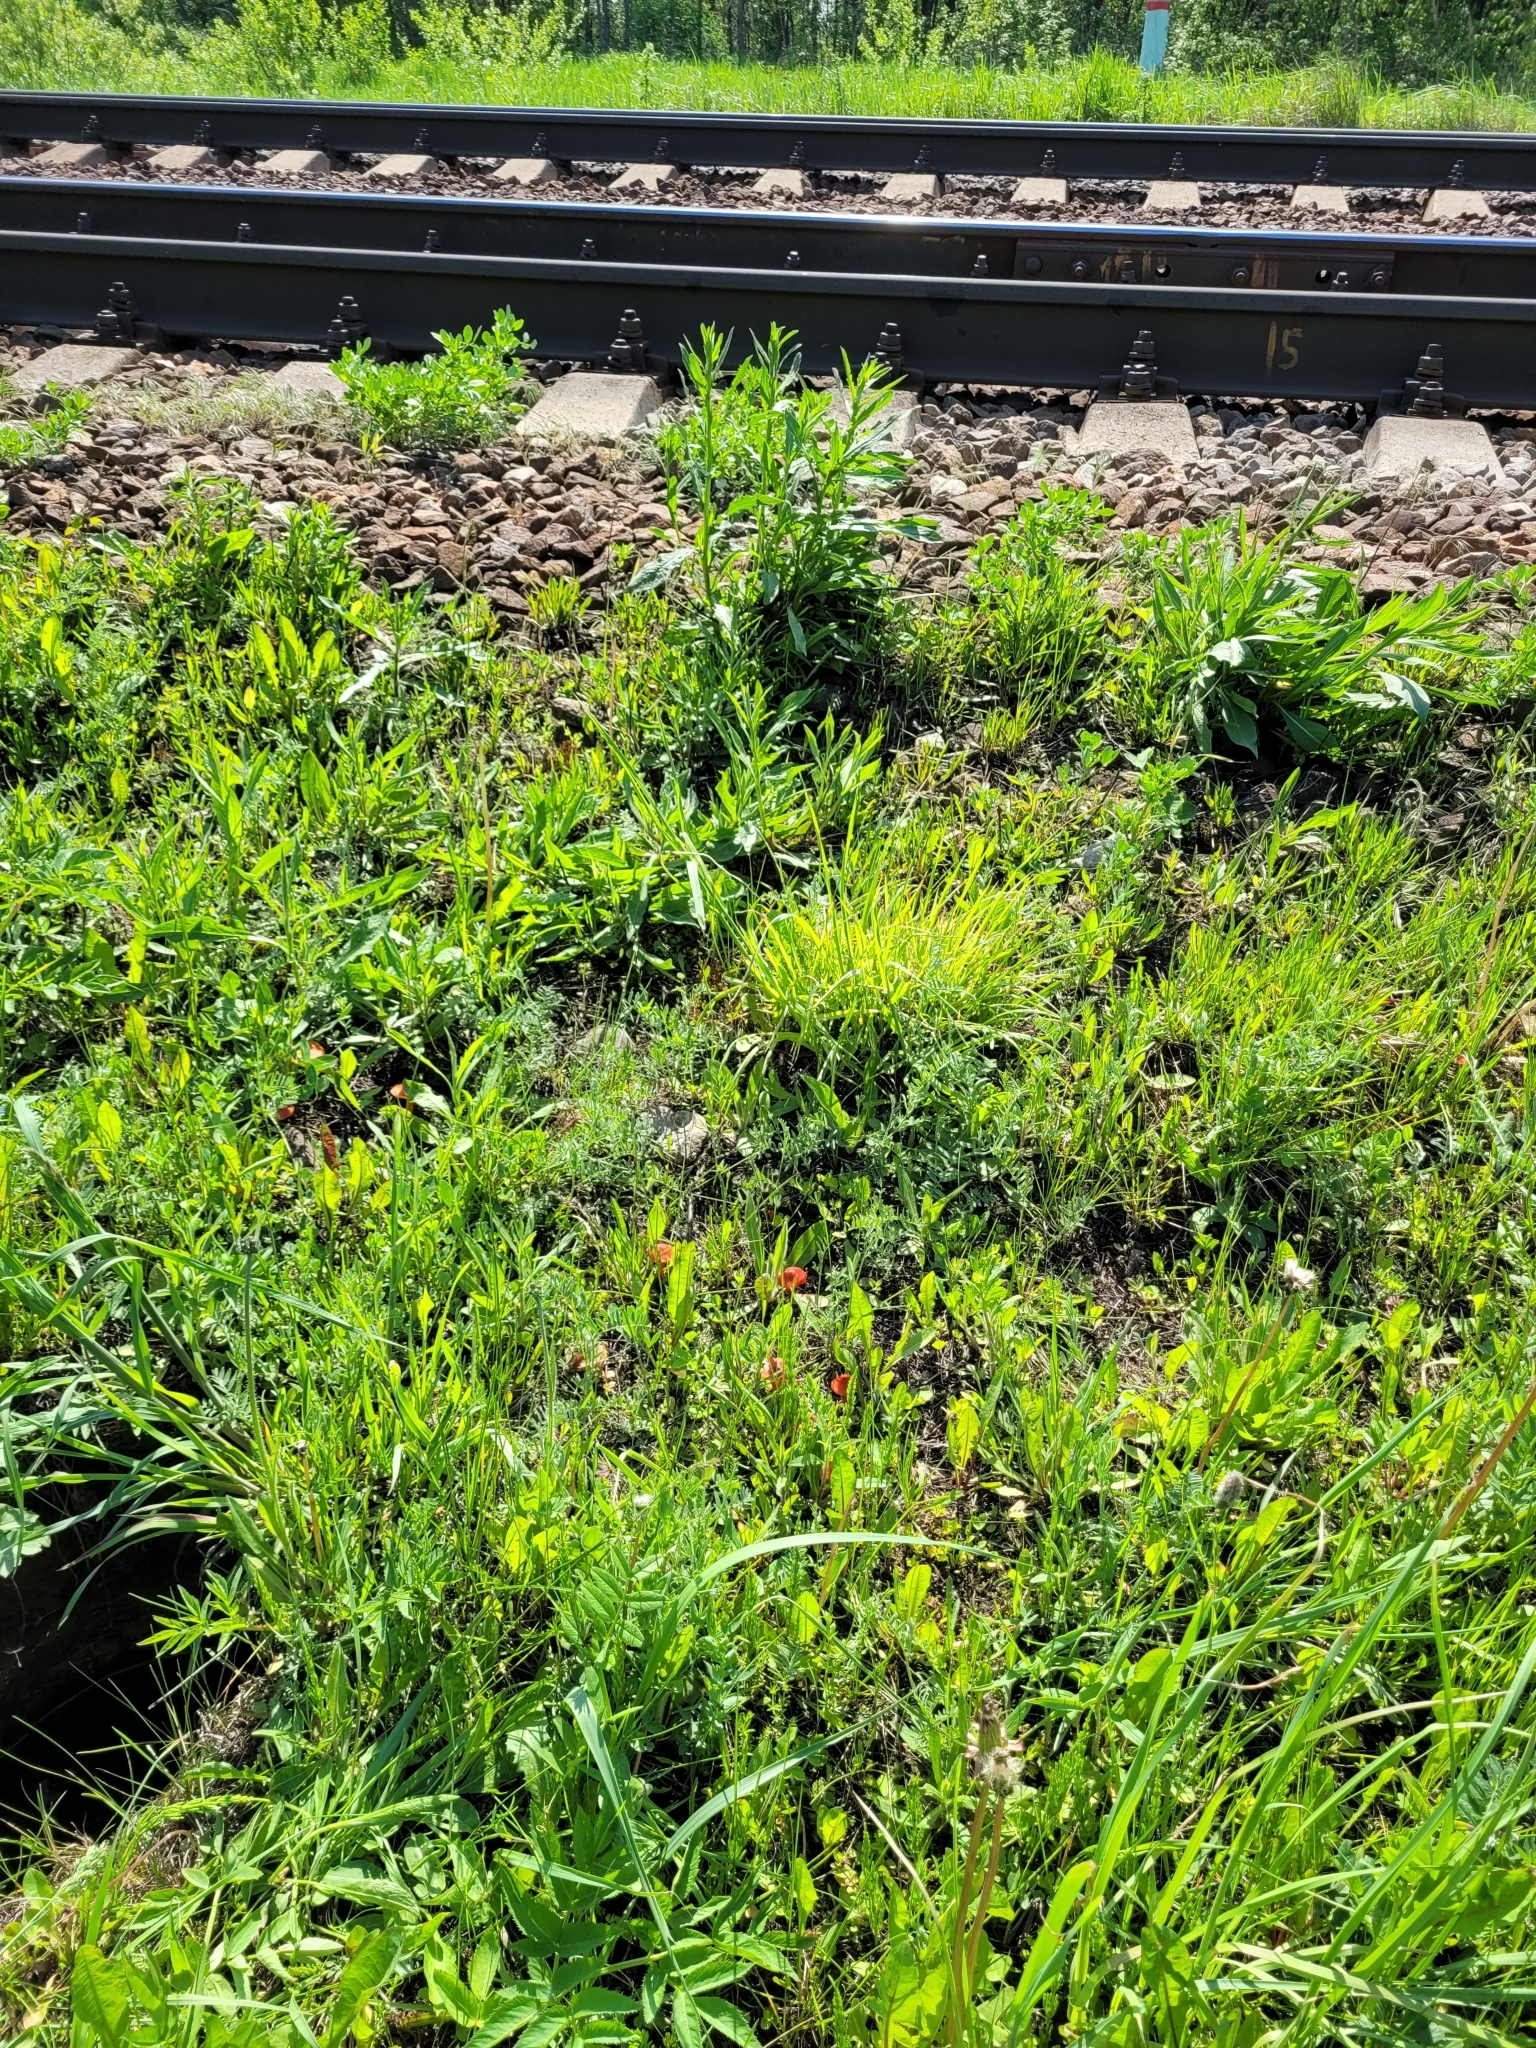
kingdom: Fungi
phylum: Basidiomycota
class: Agaricomycetes
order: Agaricales
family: Hygrophoraceae
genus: Hygrocybe
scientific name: Hygrocybe conica
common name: Blackening wax-cap
